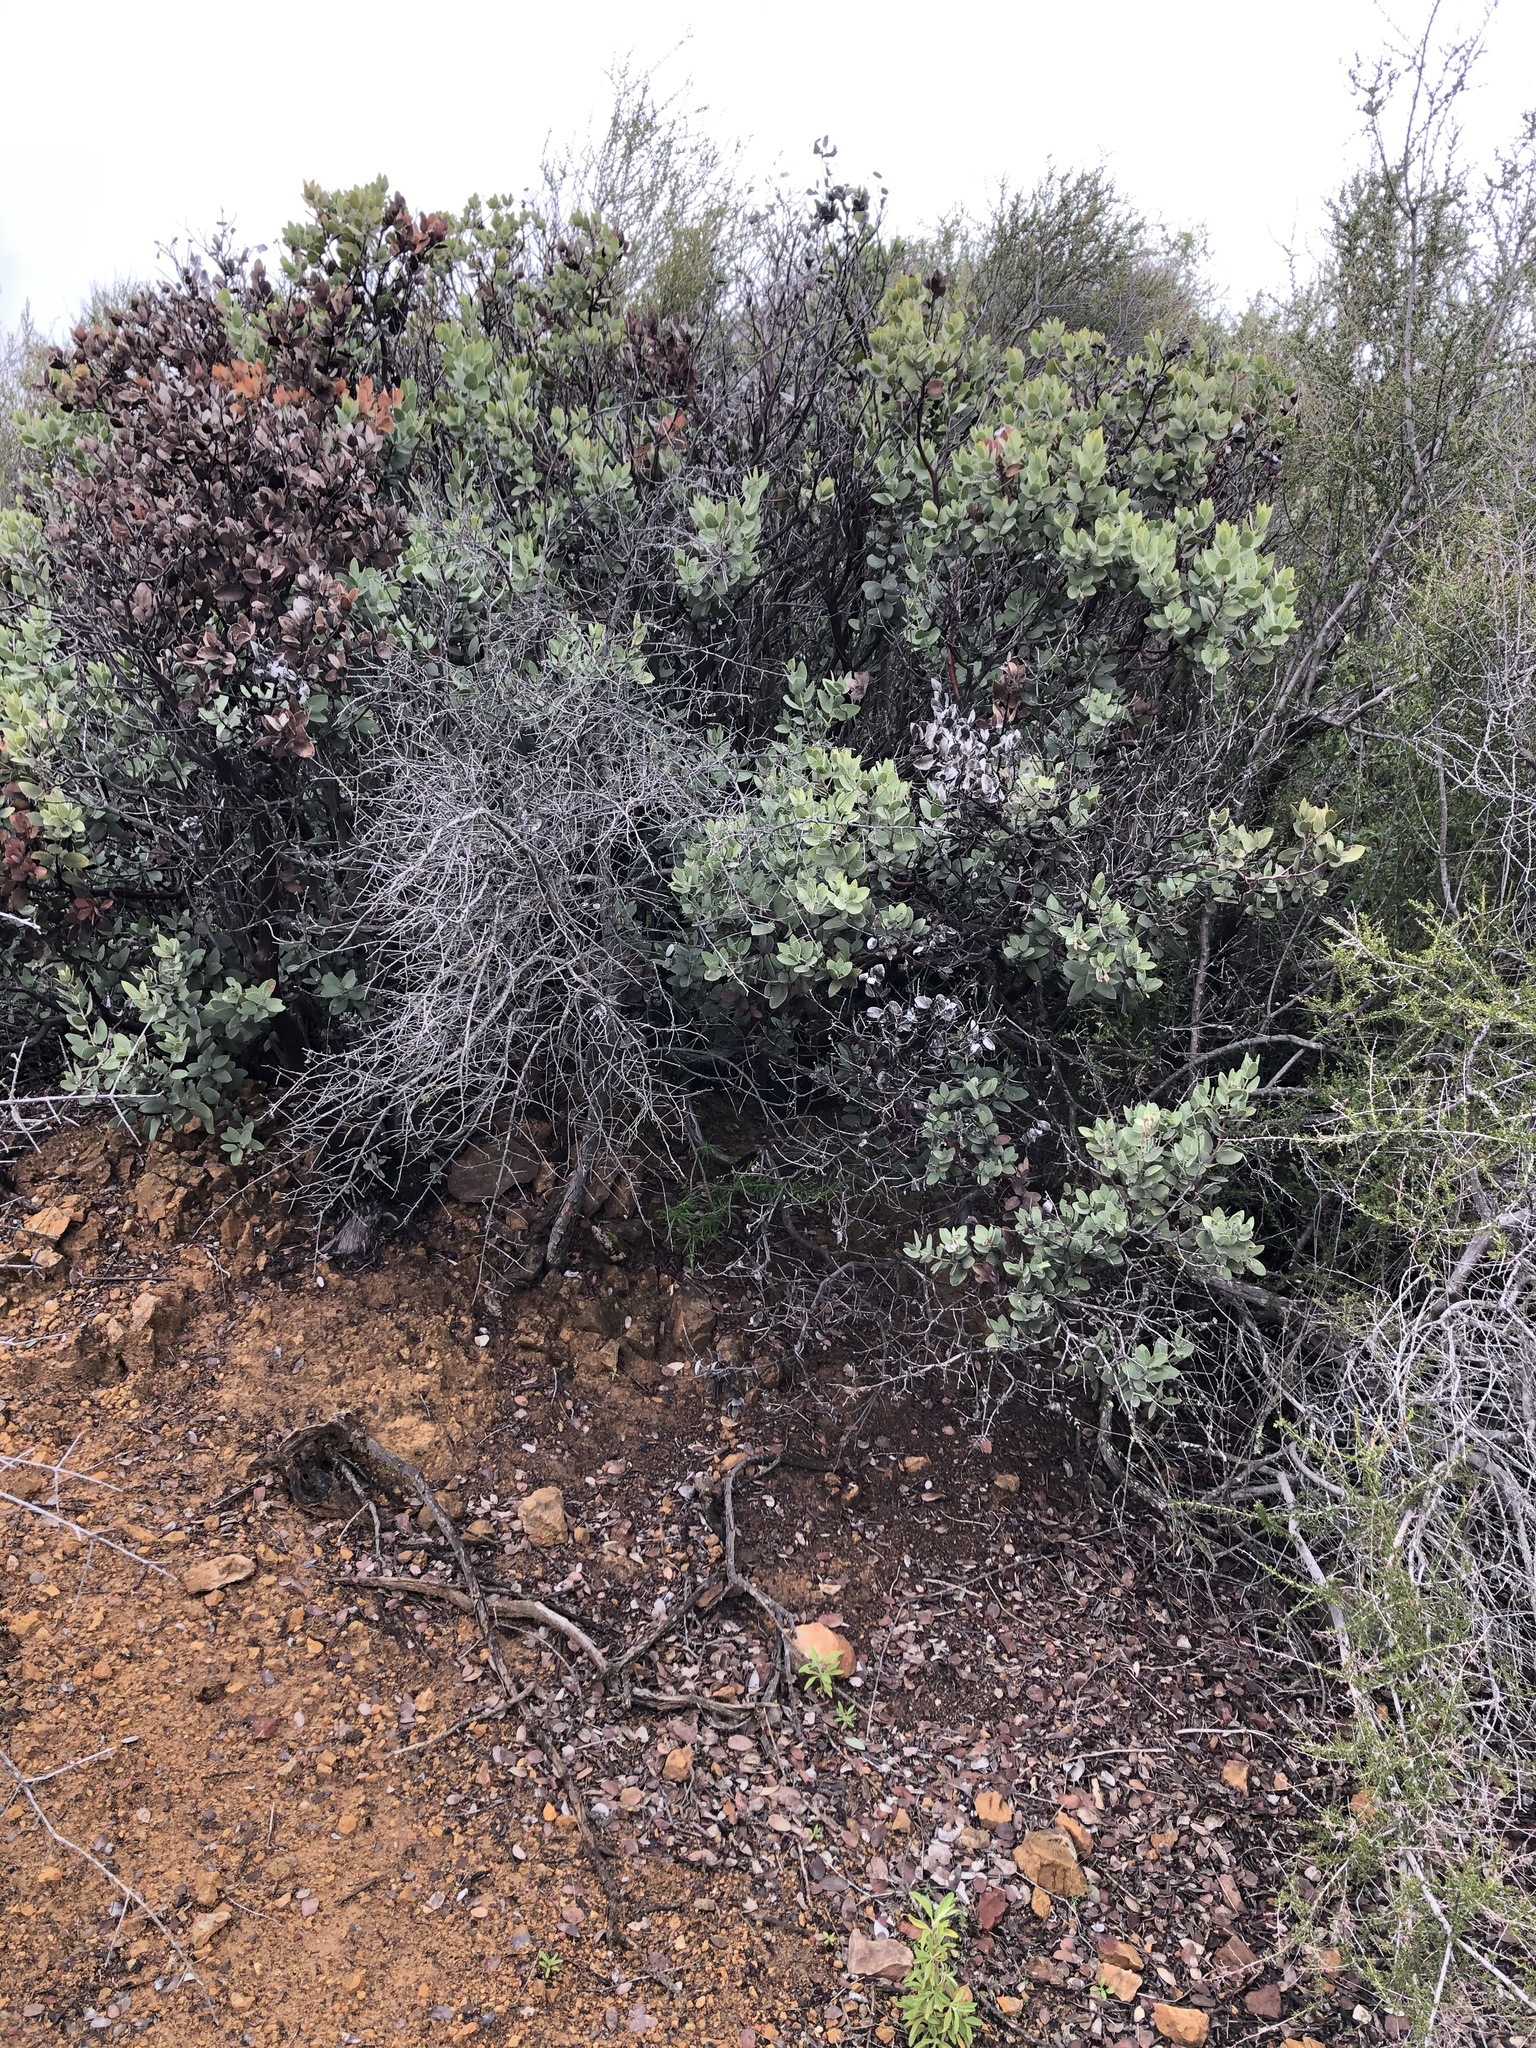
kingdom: Plantae
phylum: Tracheophyta
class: Magnoliopsida
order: Ericales
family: Ericaceae
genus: Arctostaphylos
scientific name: Arctostaphylos glandulosa
